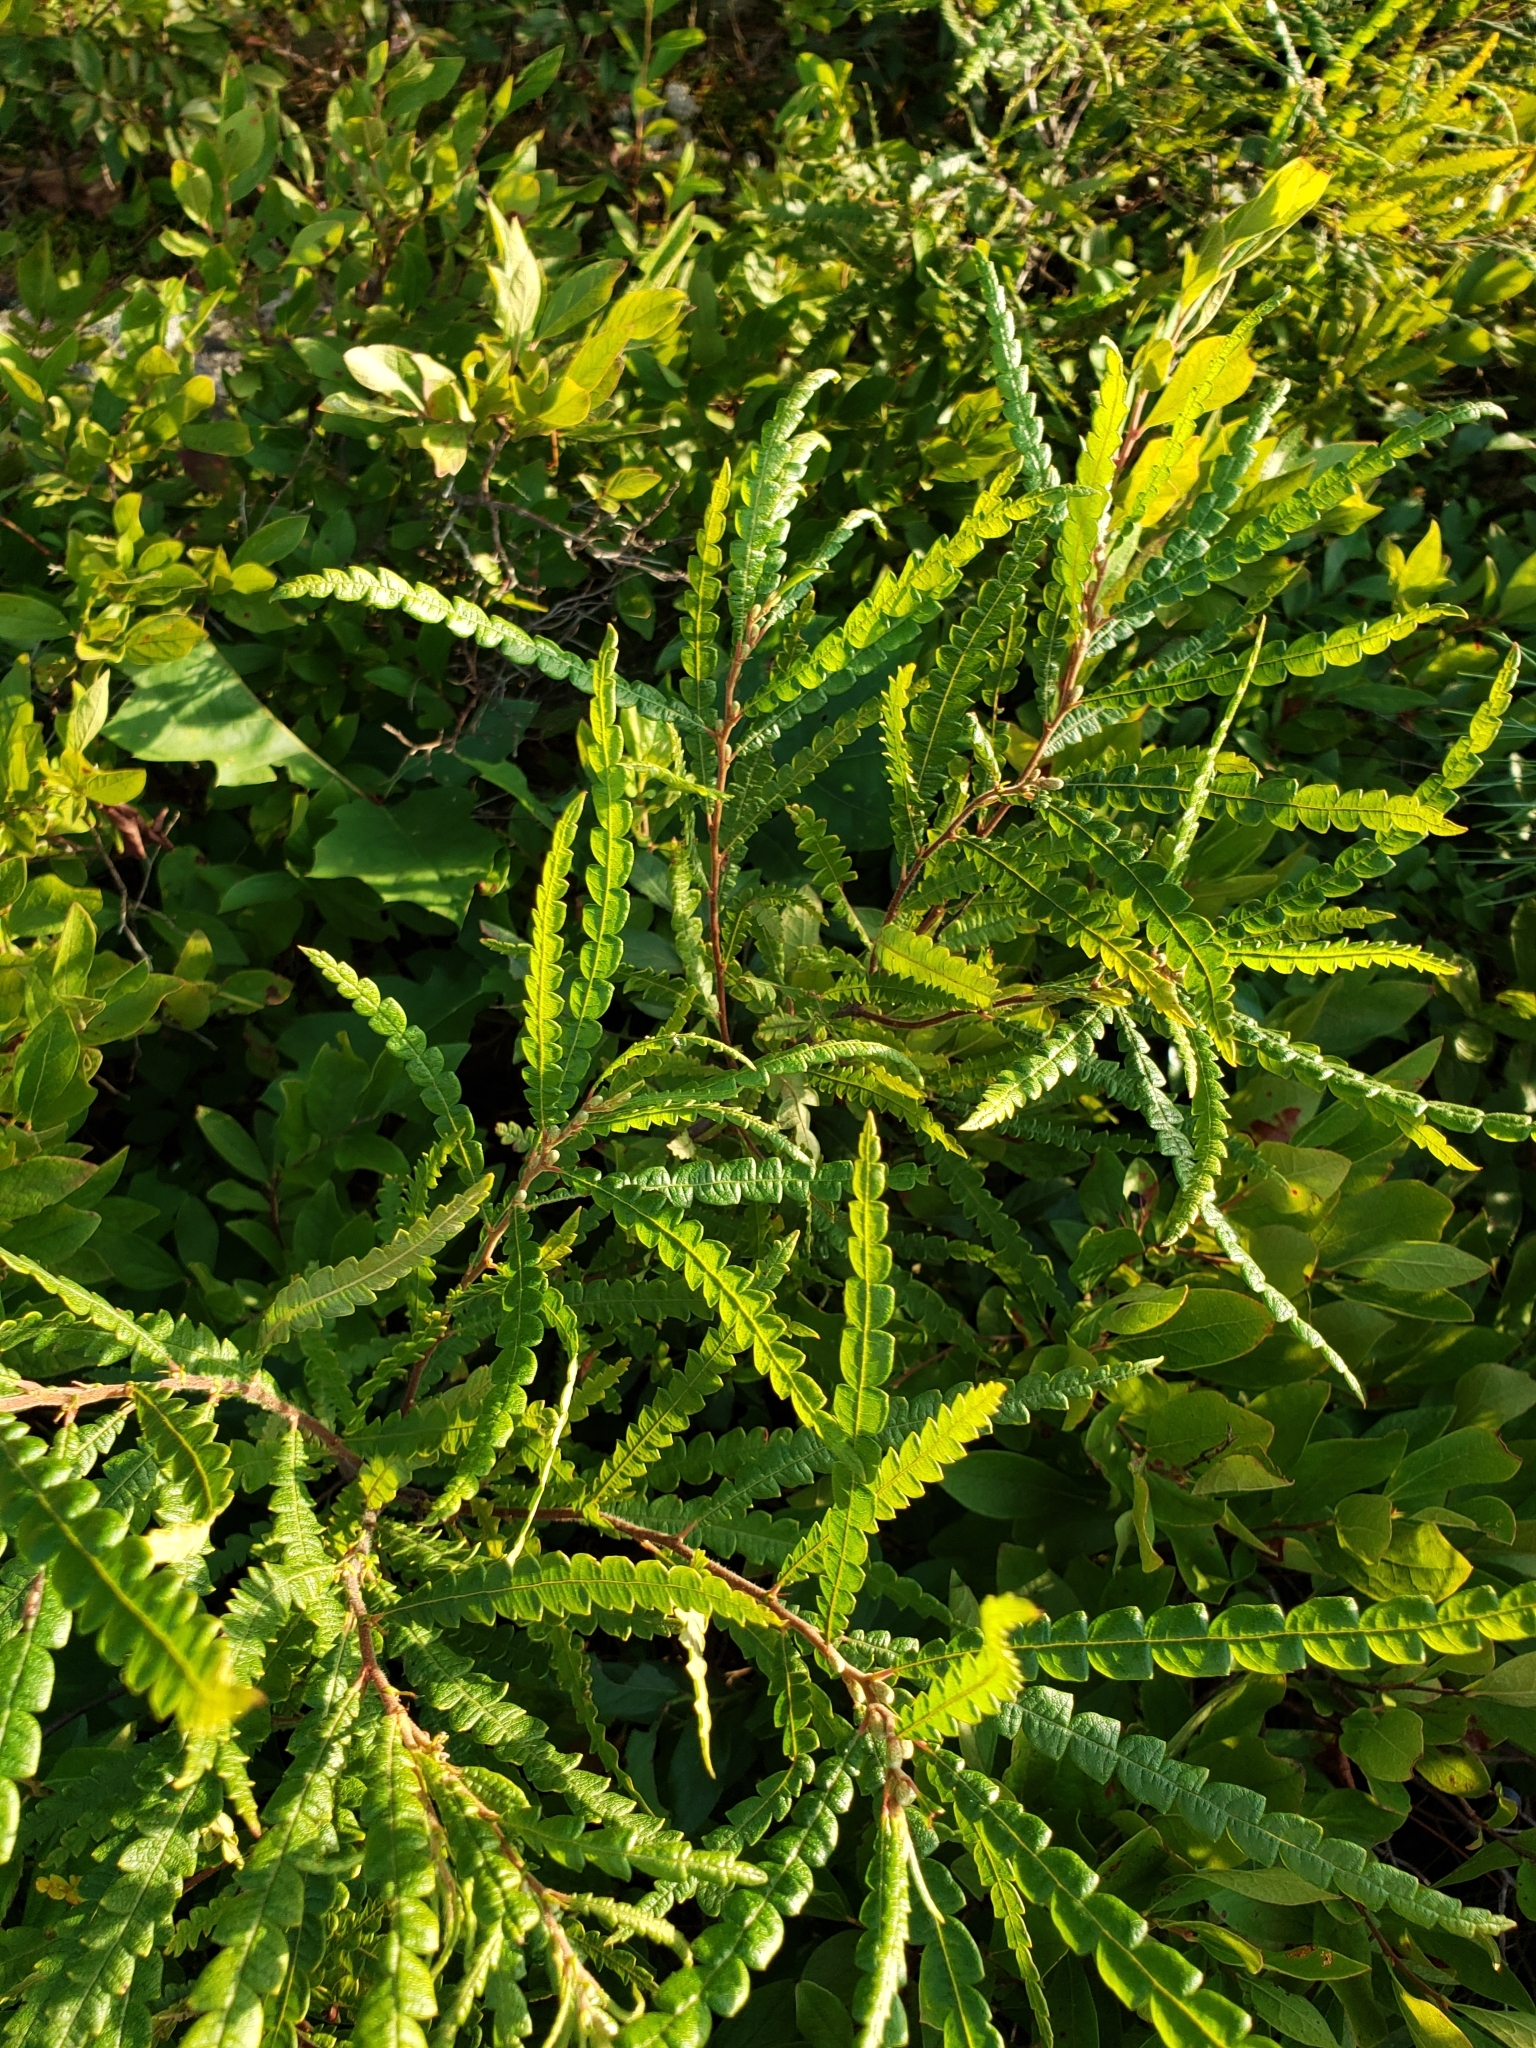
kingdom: Plantae
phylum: Tracheophyta
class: Magnoliopsida
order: Fagales
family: Myricaceae
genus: Comptonia
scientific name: Comptonia peregrina
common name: Sweet-fern
